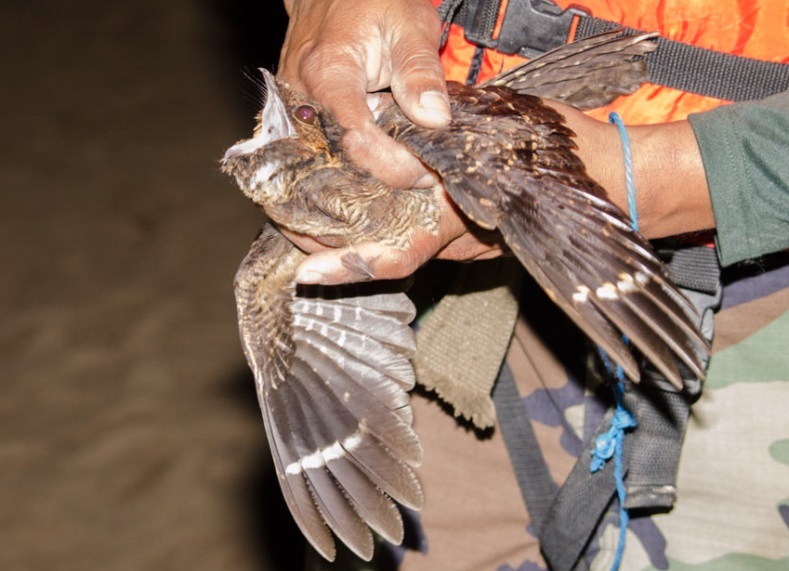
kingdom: Animalia
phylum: Chordata
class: Aves
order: Caprimulgiformes
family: Caprimulgidae
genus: Nyctidromus
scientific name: Nyctidromus albicollis
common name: Pauraque
